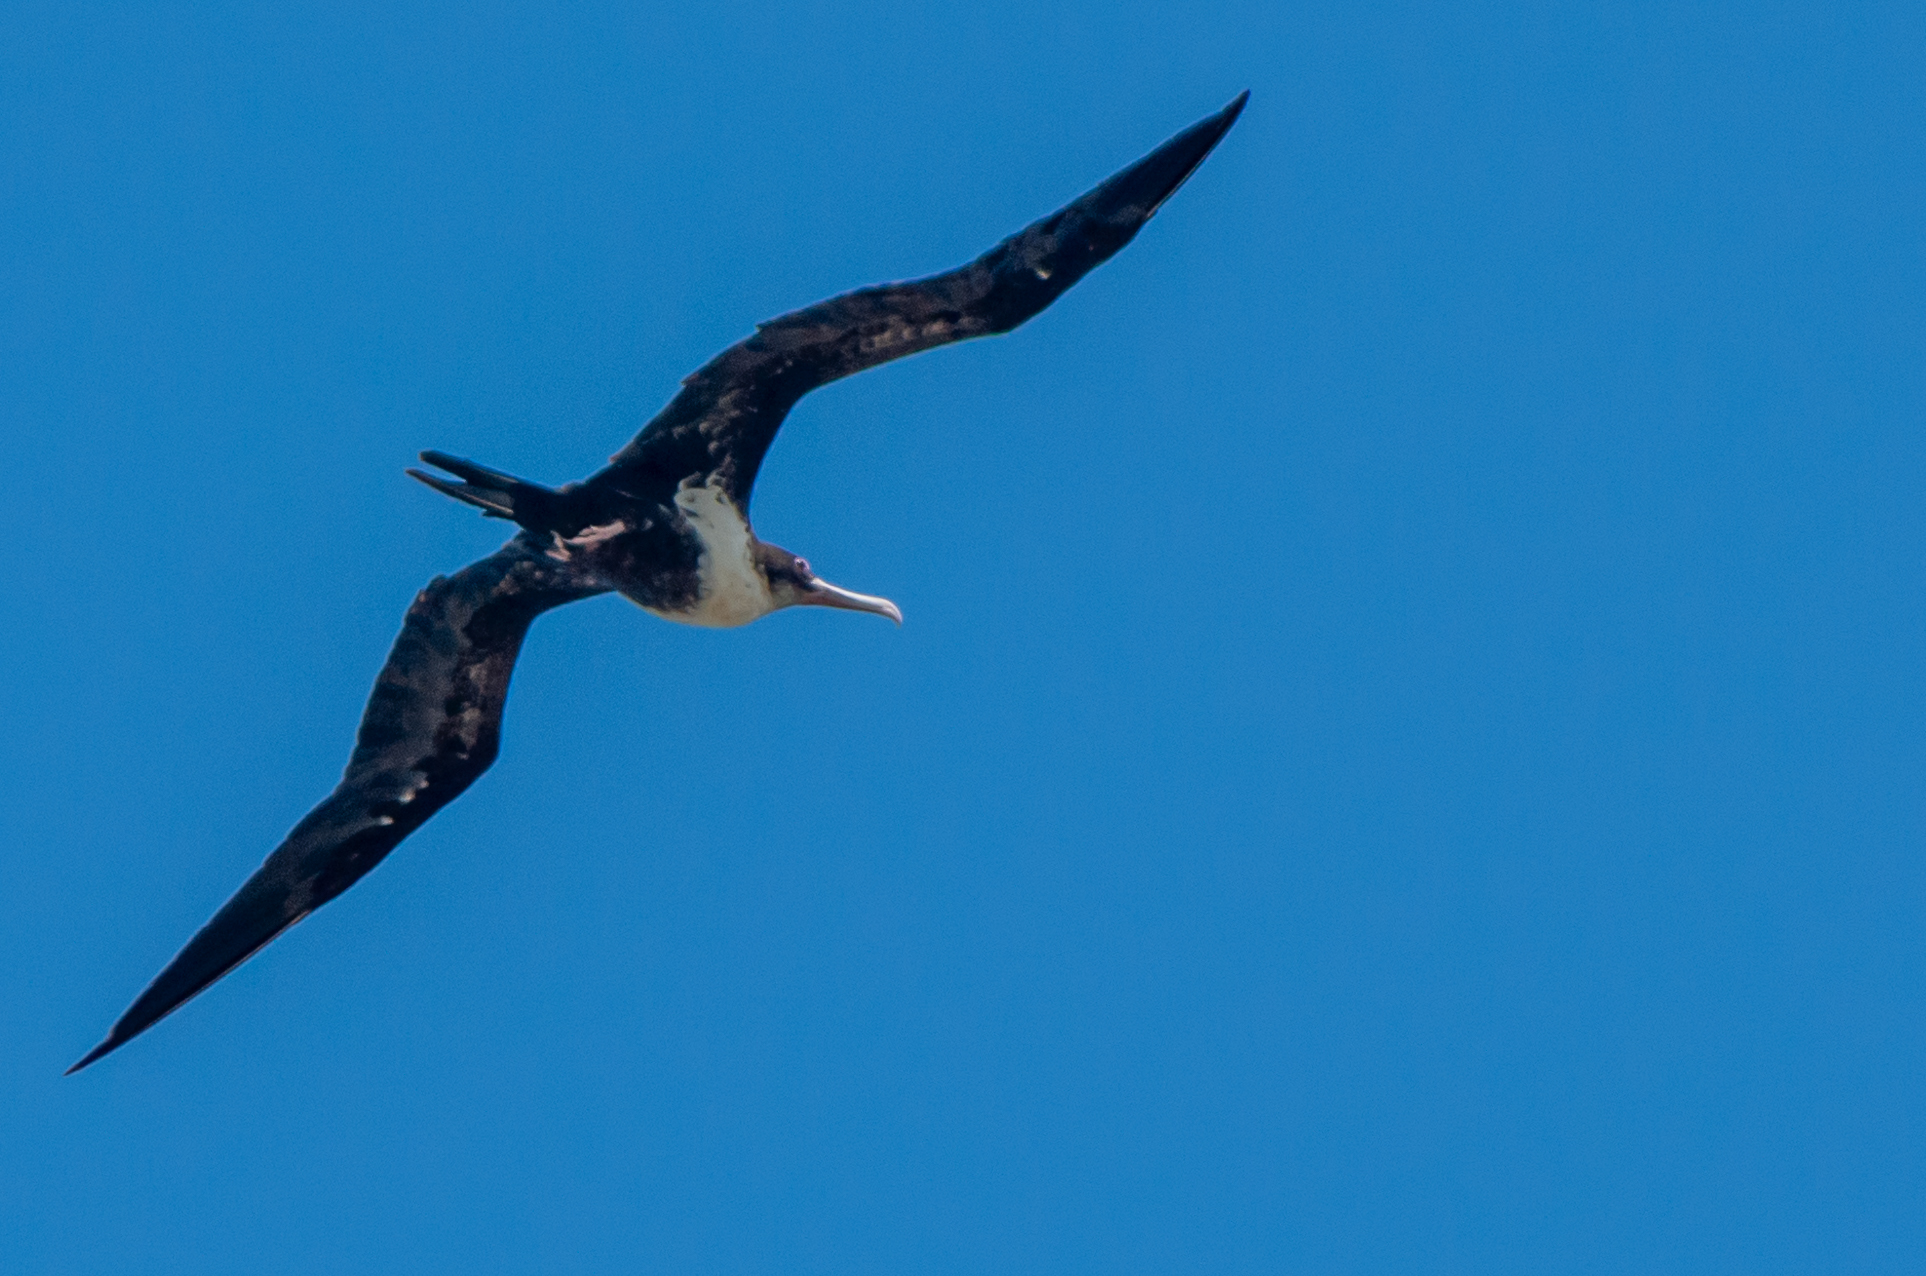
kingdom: Animalia
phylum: Chordata
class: Aves
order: Suliformes
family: Fregatidae
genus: Fregata
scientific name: Fregata minor
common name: Great frigatebird
